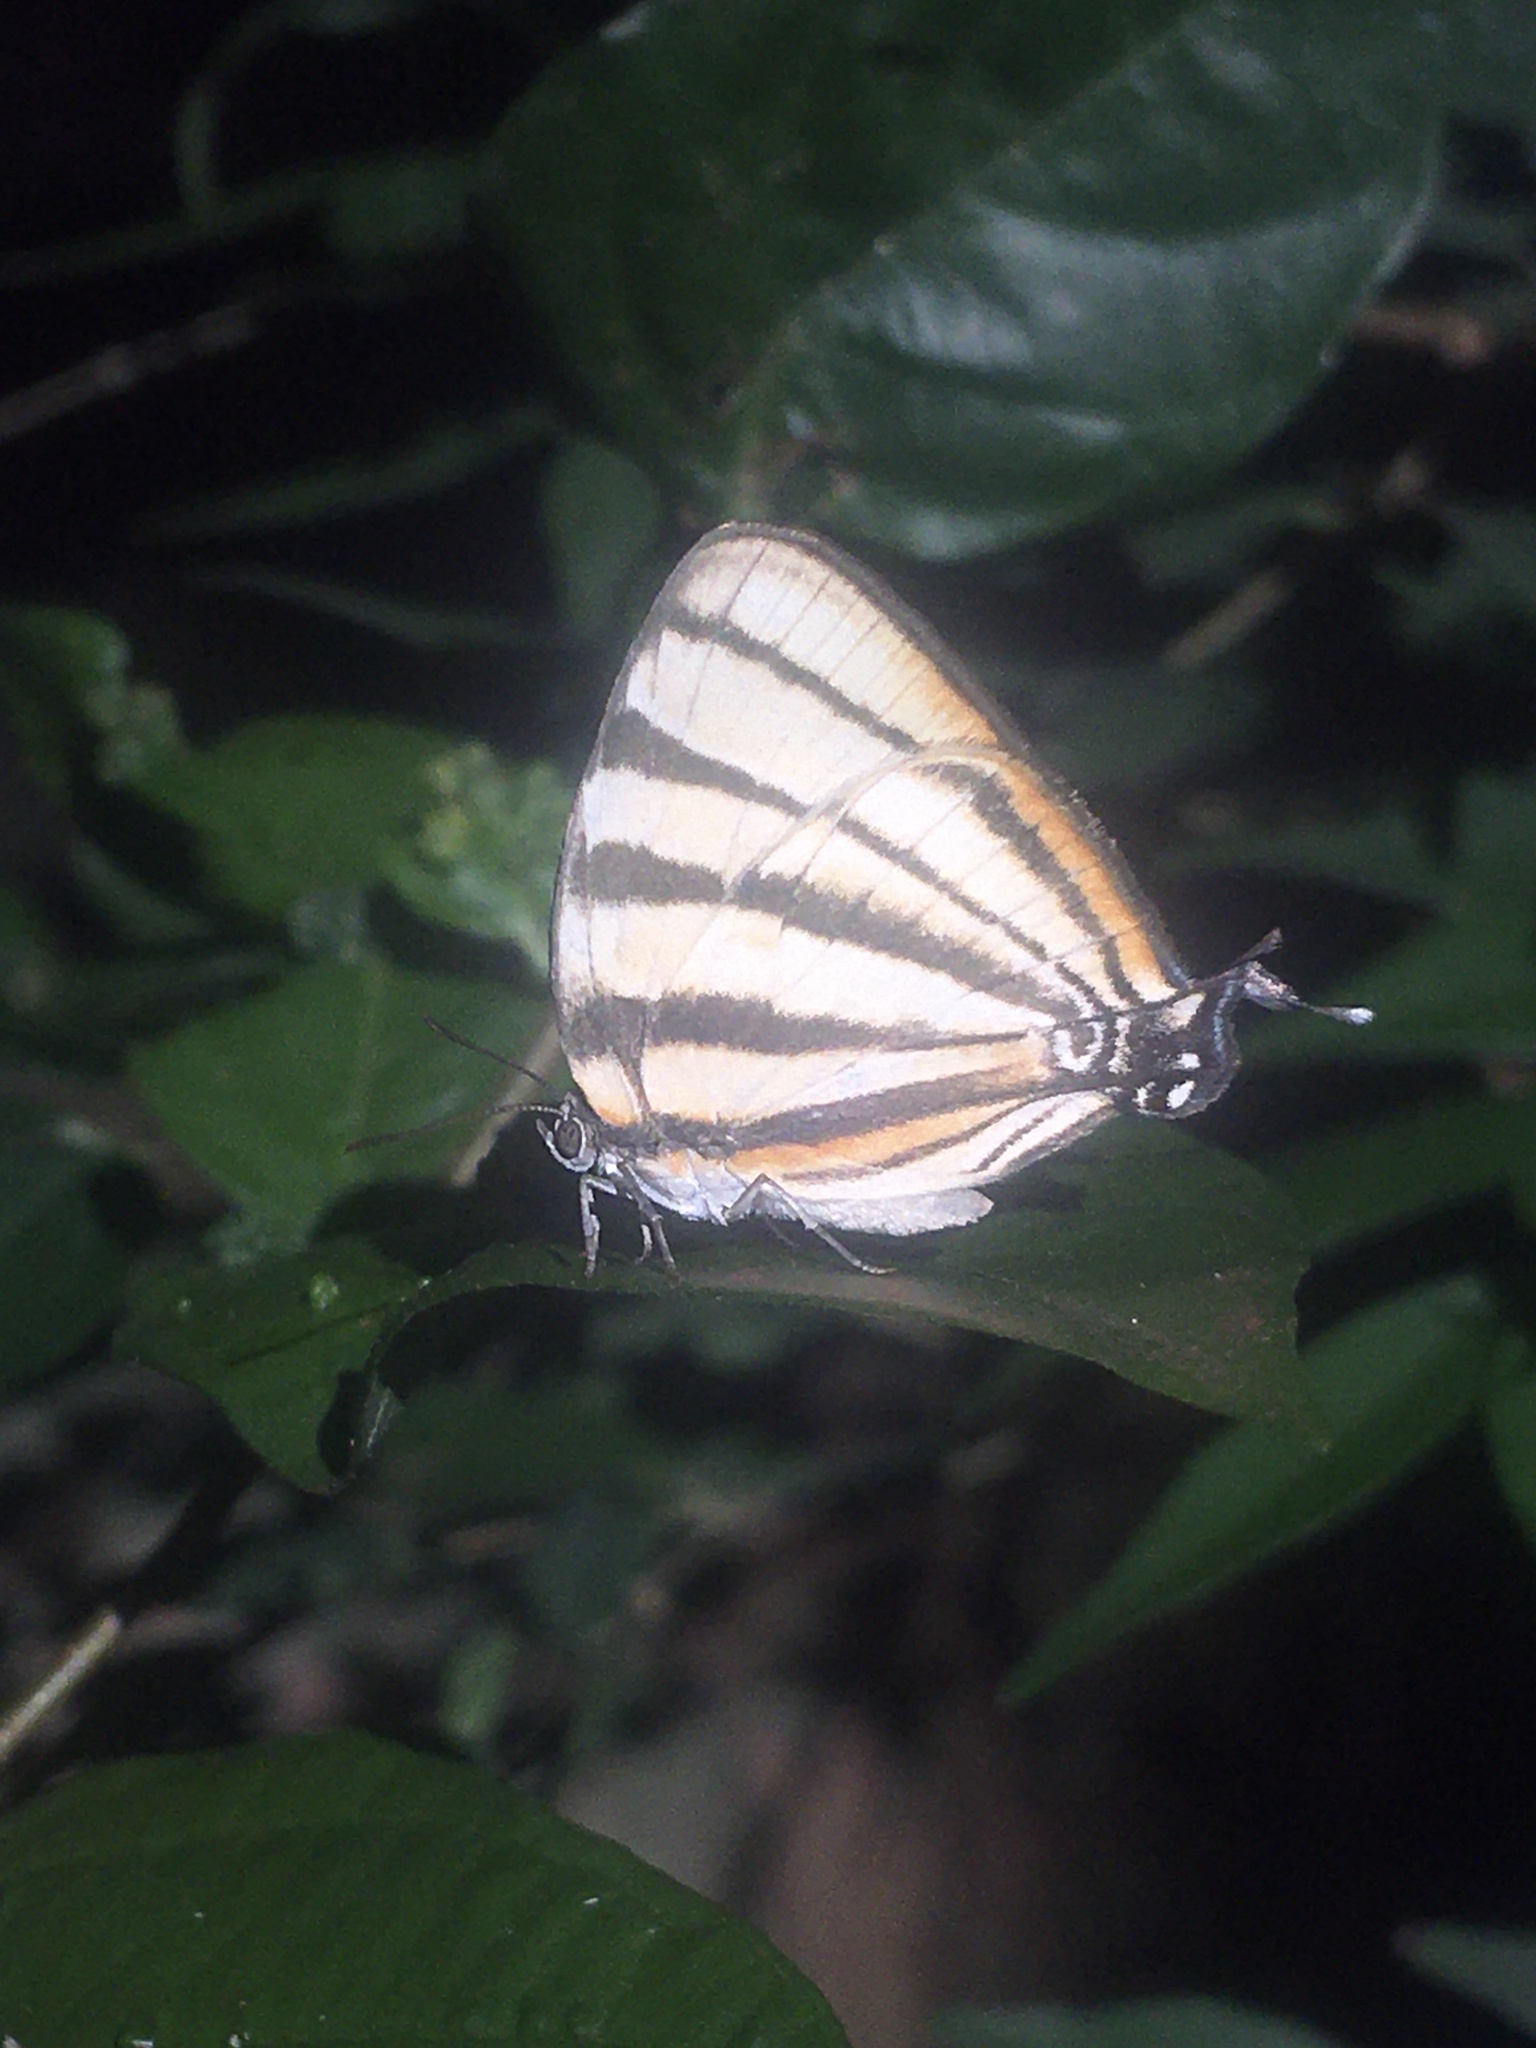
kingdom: Animalia
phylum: Arthropoda
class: Insecta
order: Lepidoptera
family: Lycaenidae
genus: Arawacus
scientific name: Arawacus separata
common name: Separated stripestreak
